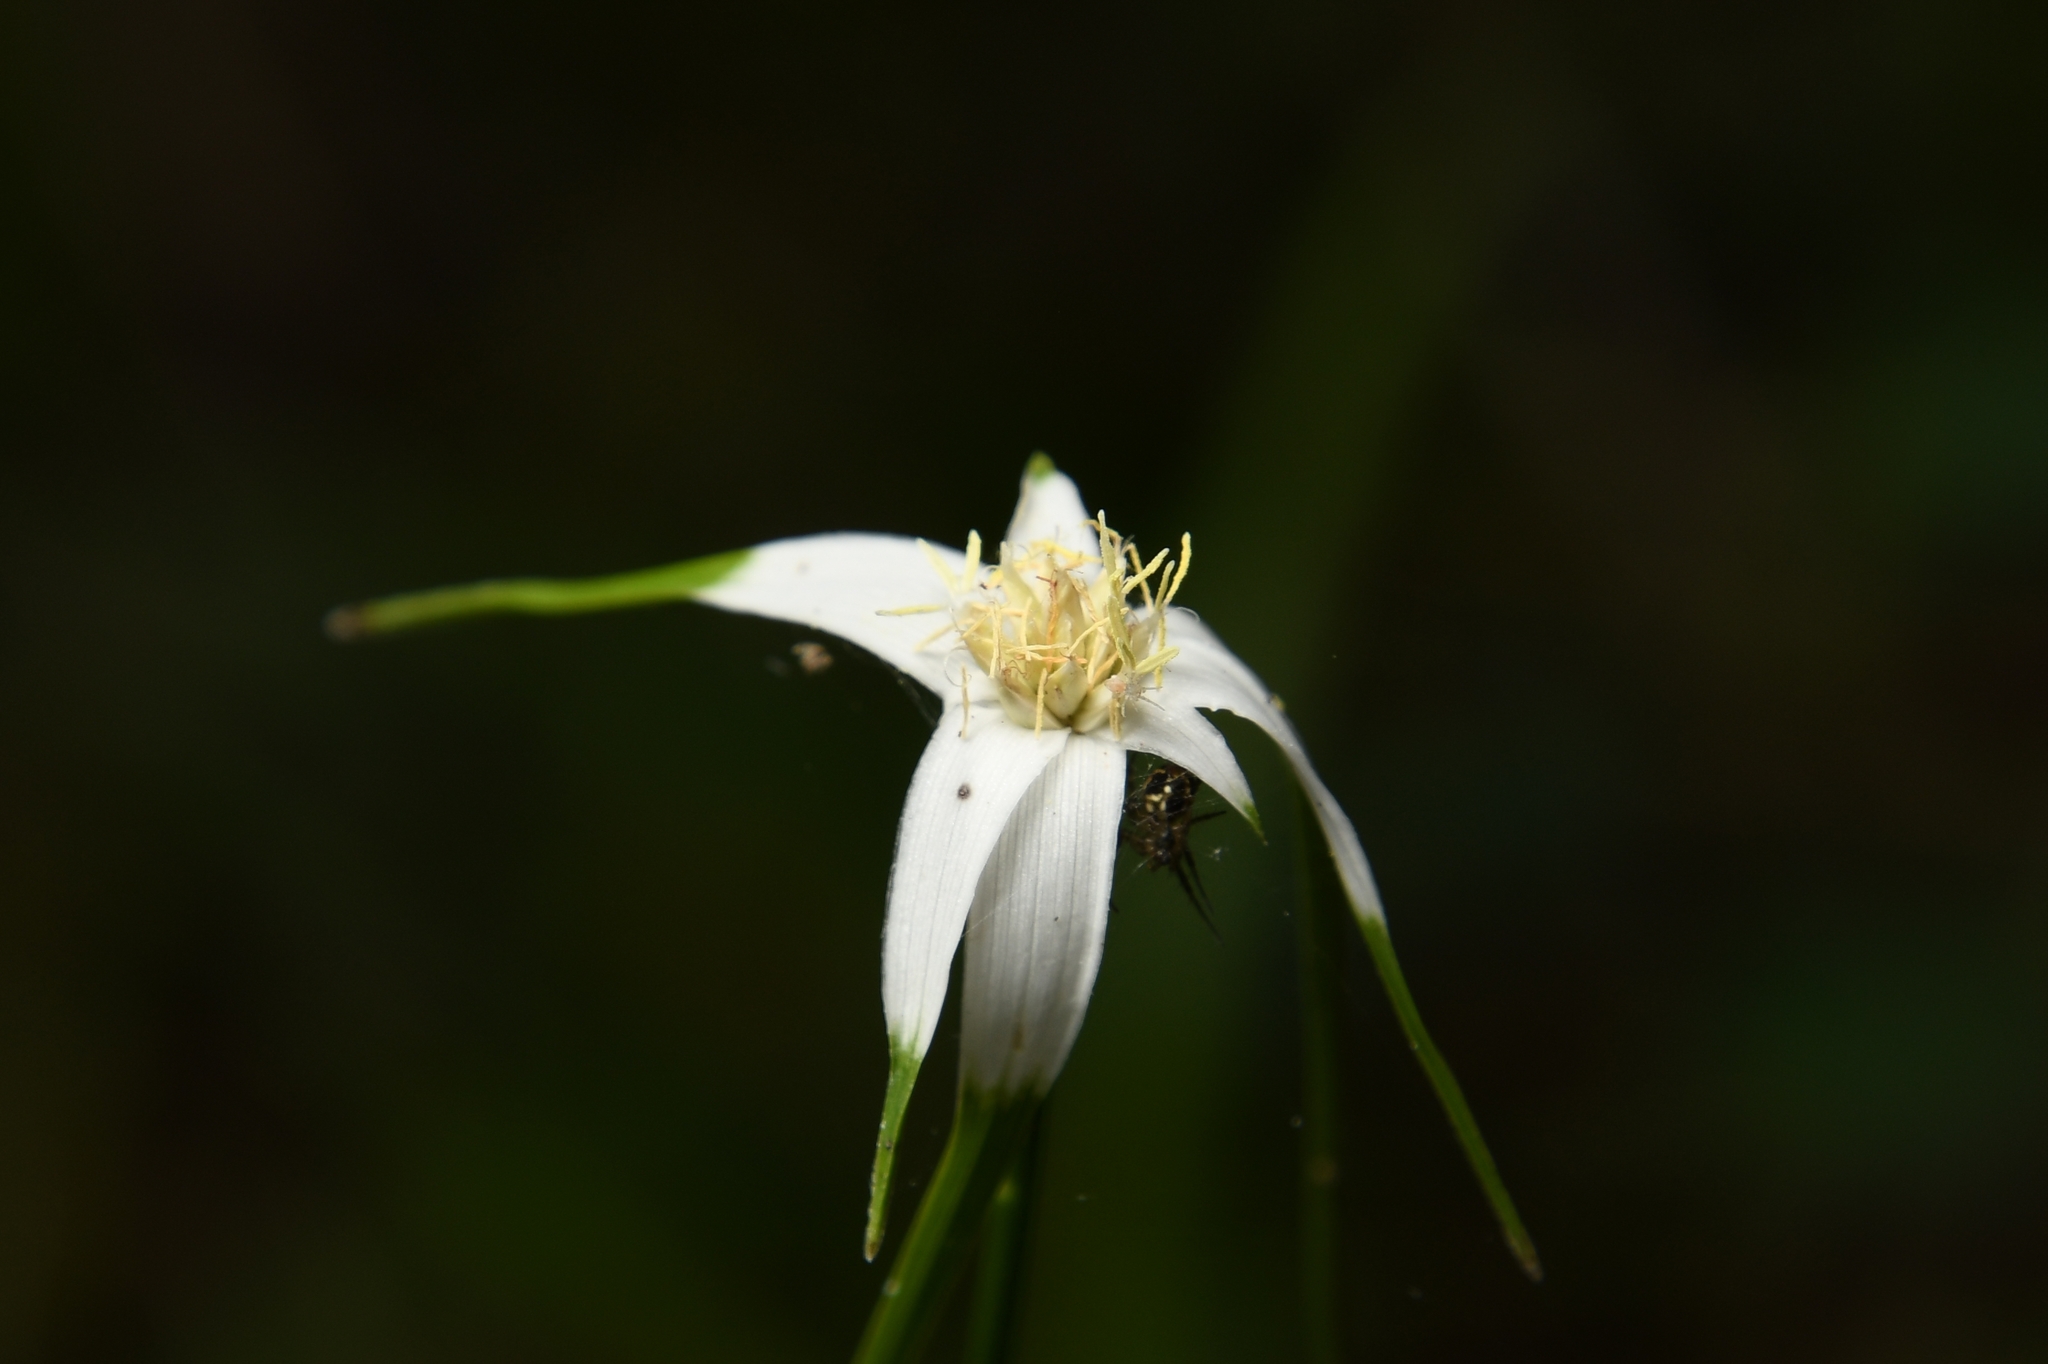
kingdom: Plantae
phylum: Tracheophyta
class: Liliopsida
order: Poales
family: Cyperaceae
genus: Rhynchospora
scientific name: Rhynchospora colorata
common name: Star sedge
